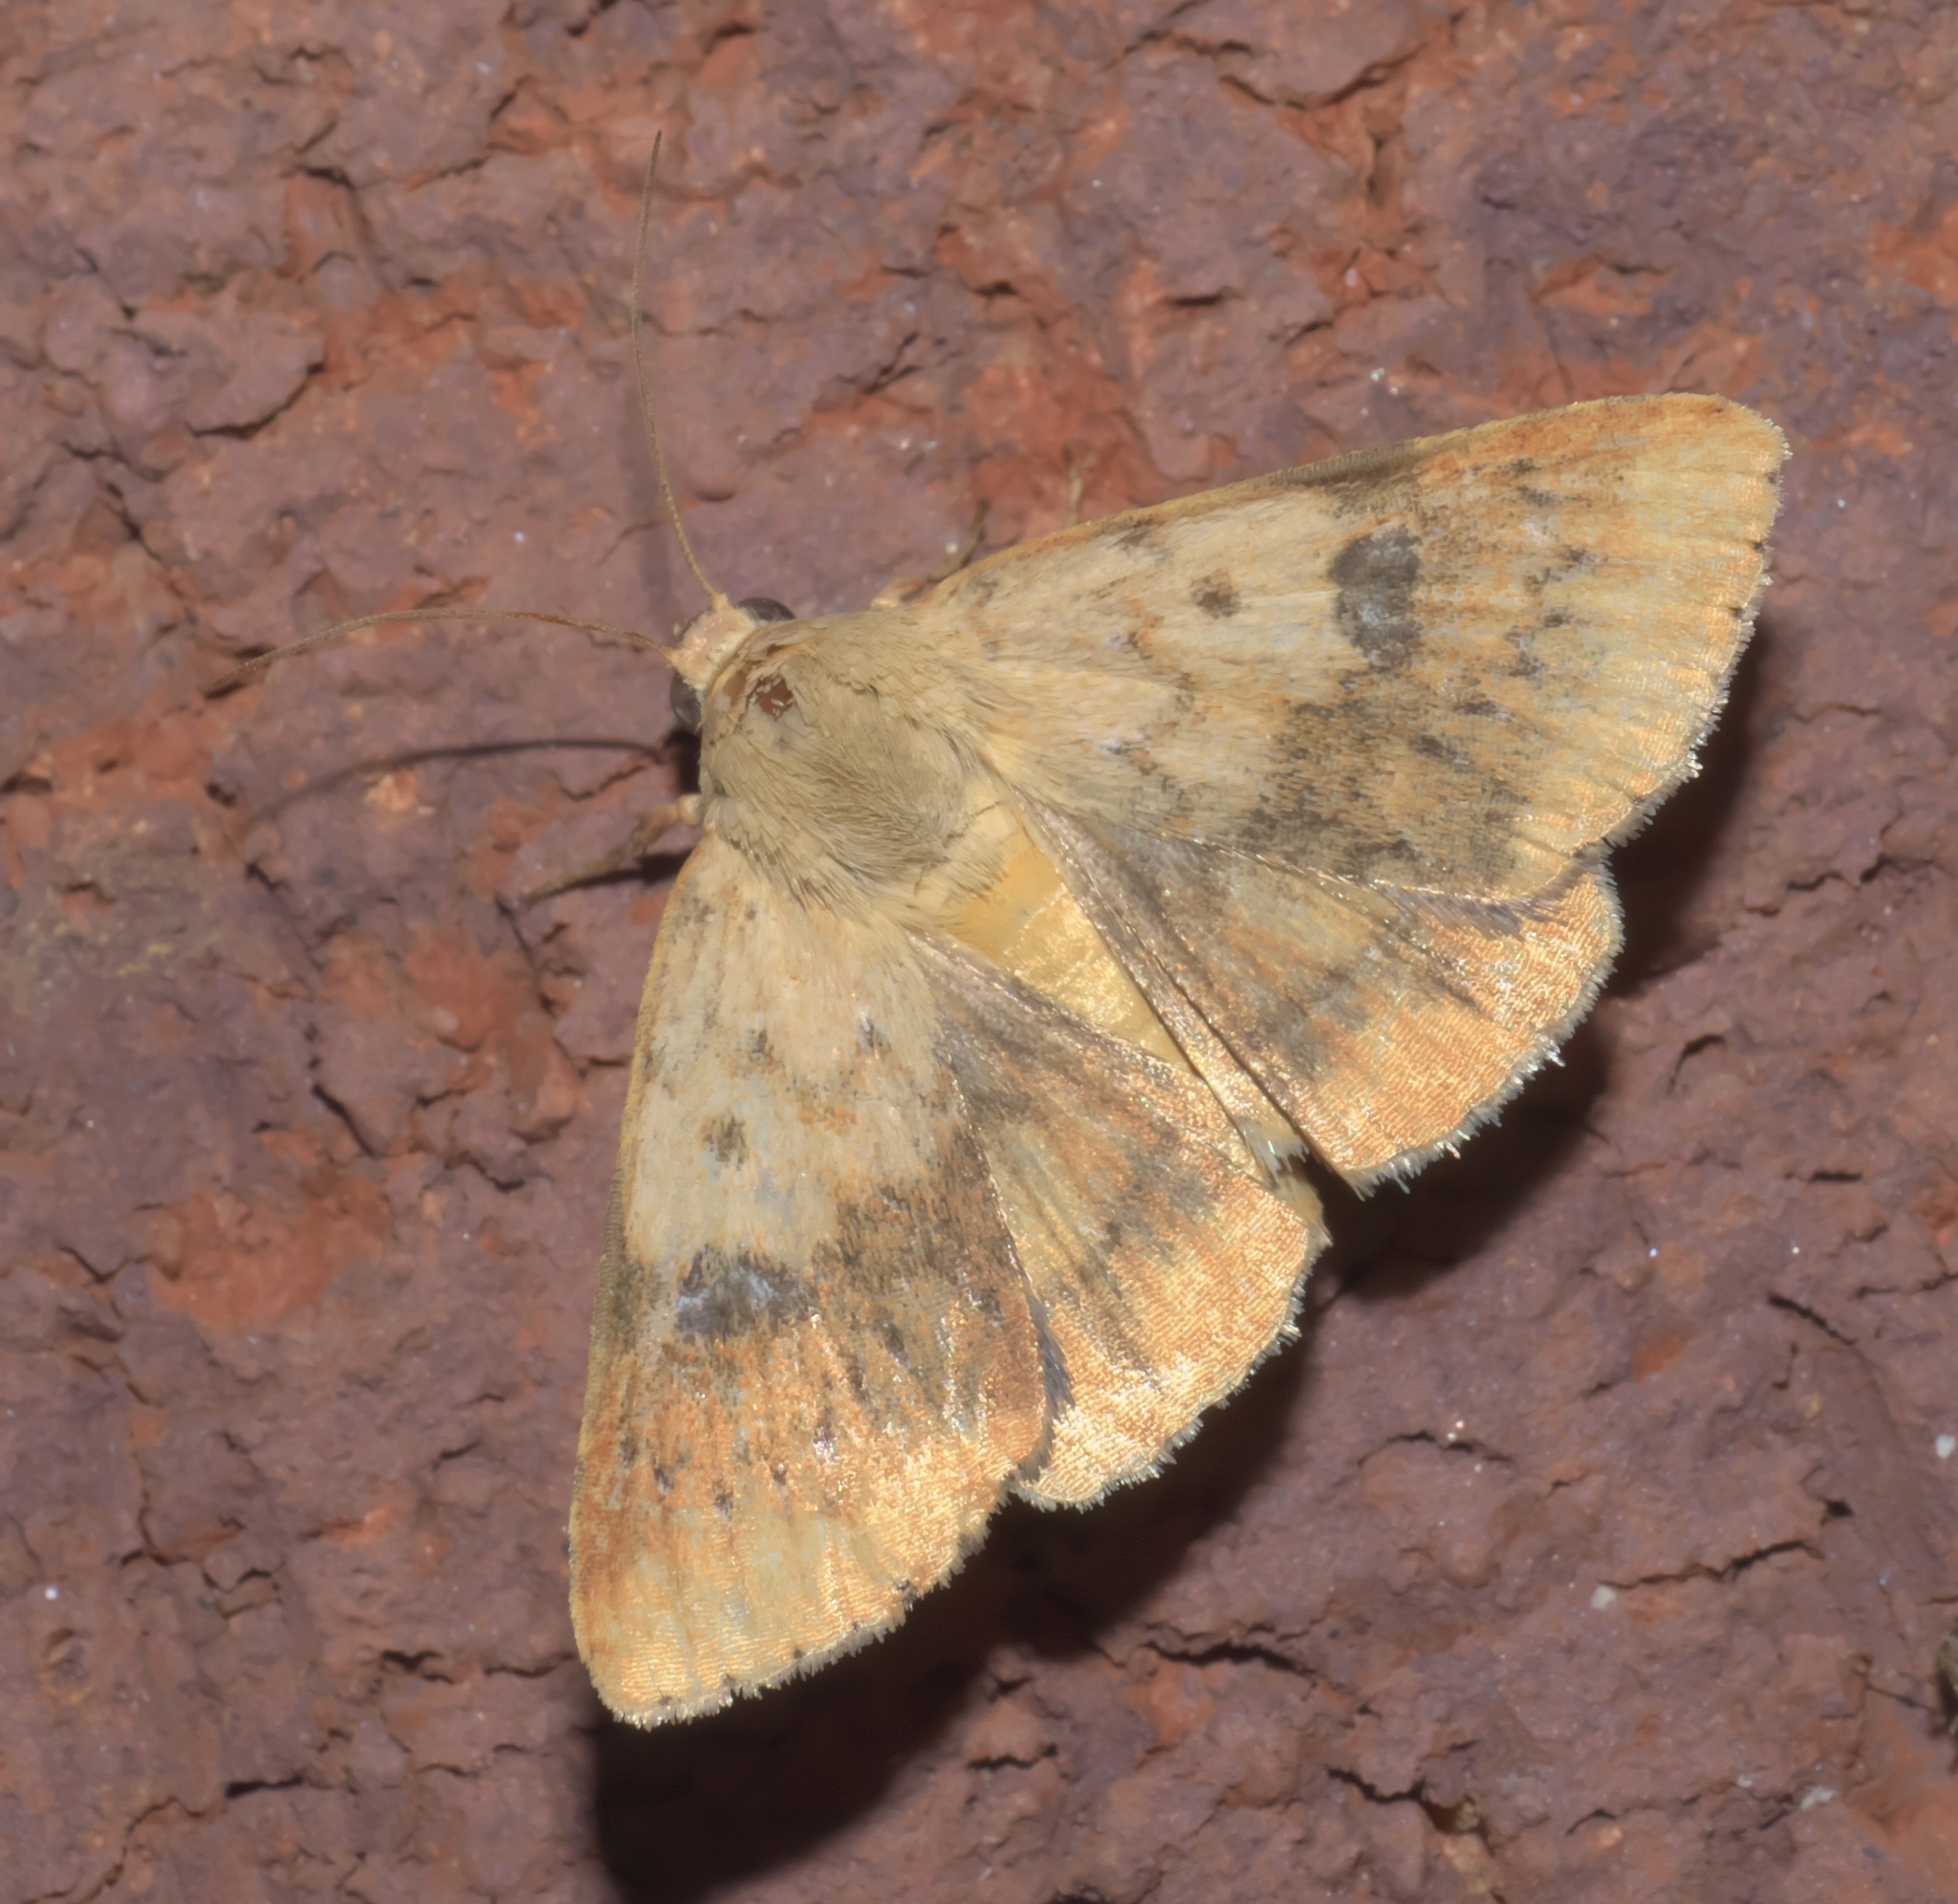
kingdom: Animalia
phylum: Arthropoda
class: Insecta
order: Lepidoptera
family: Noctuidae
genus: Heliocheilus
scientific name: Heliocheilus lupata
